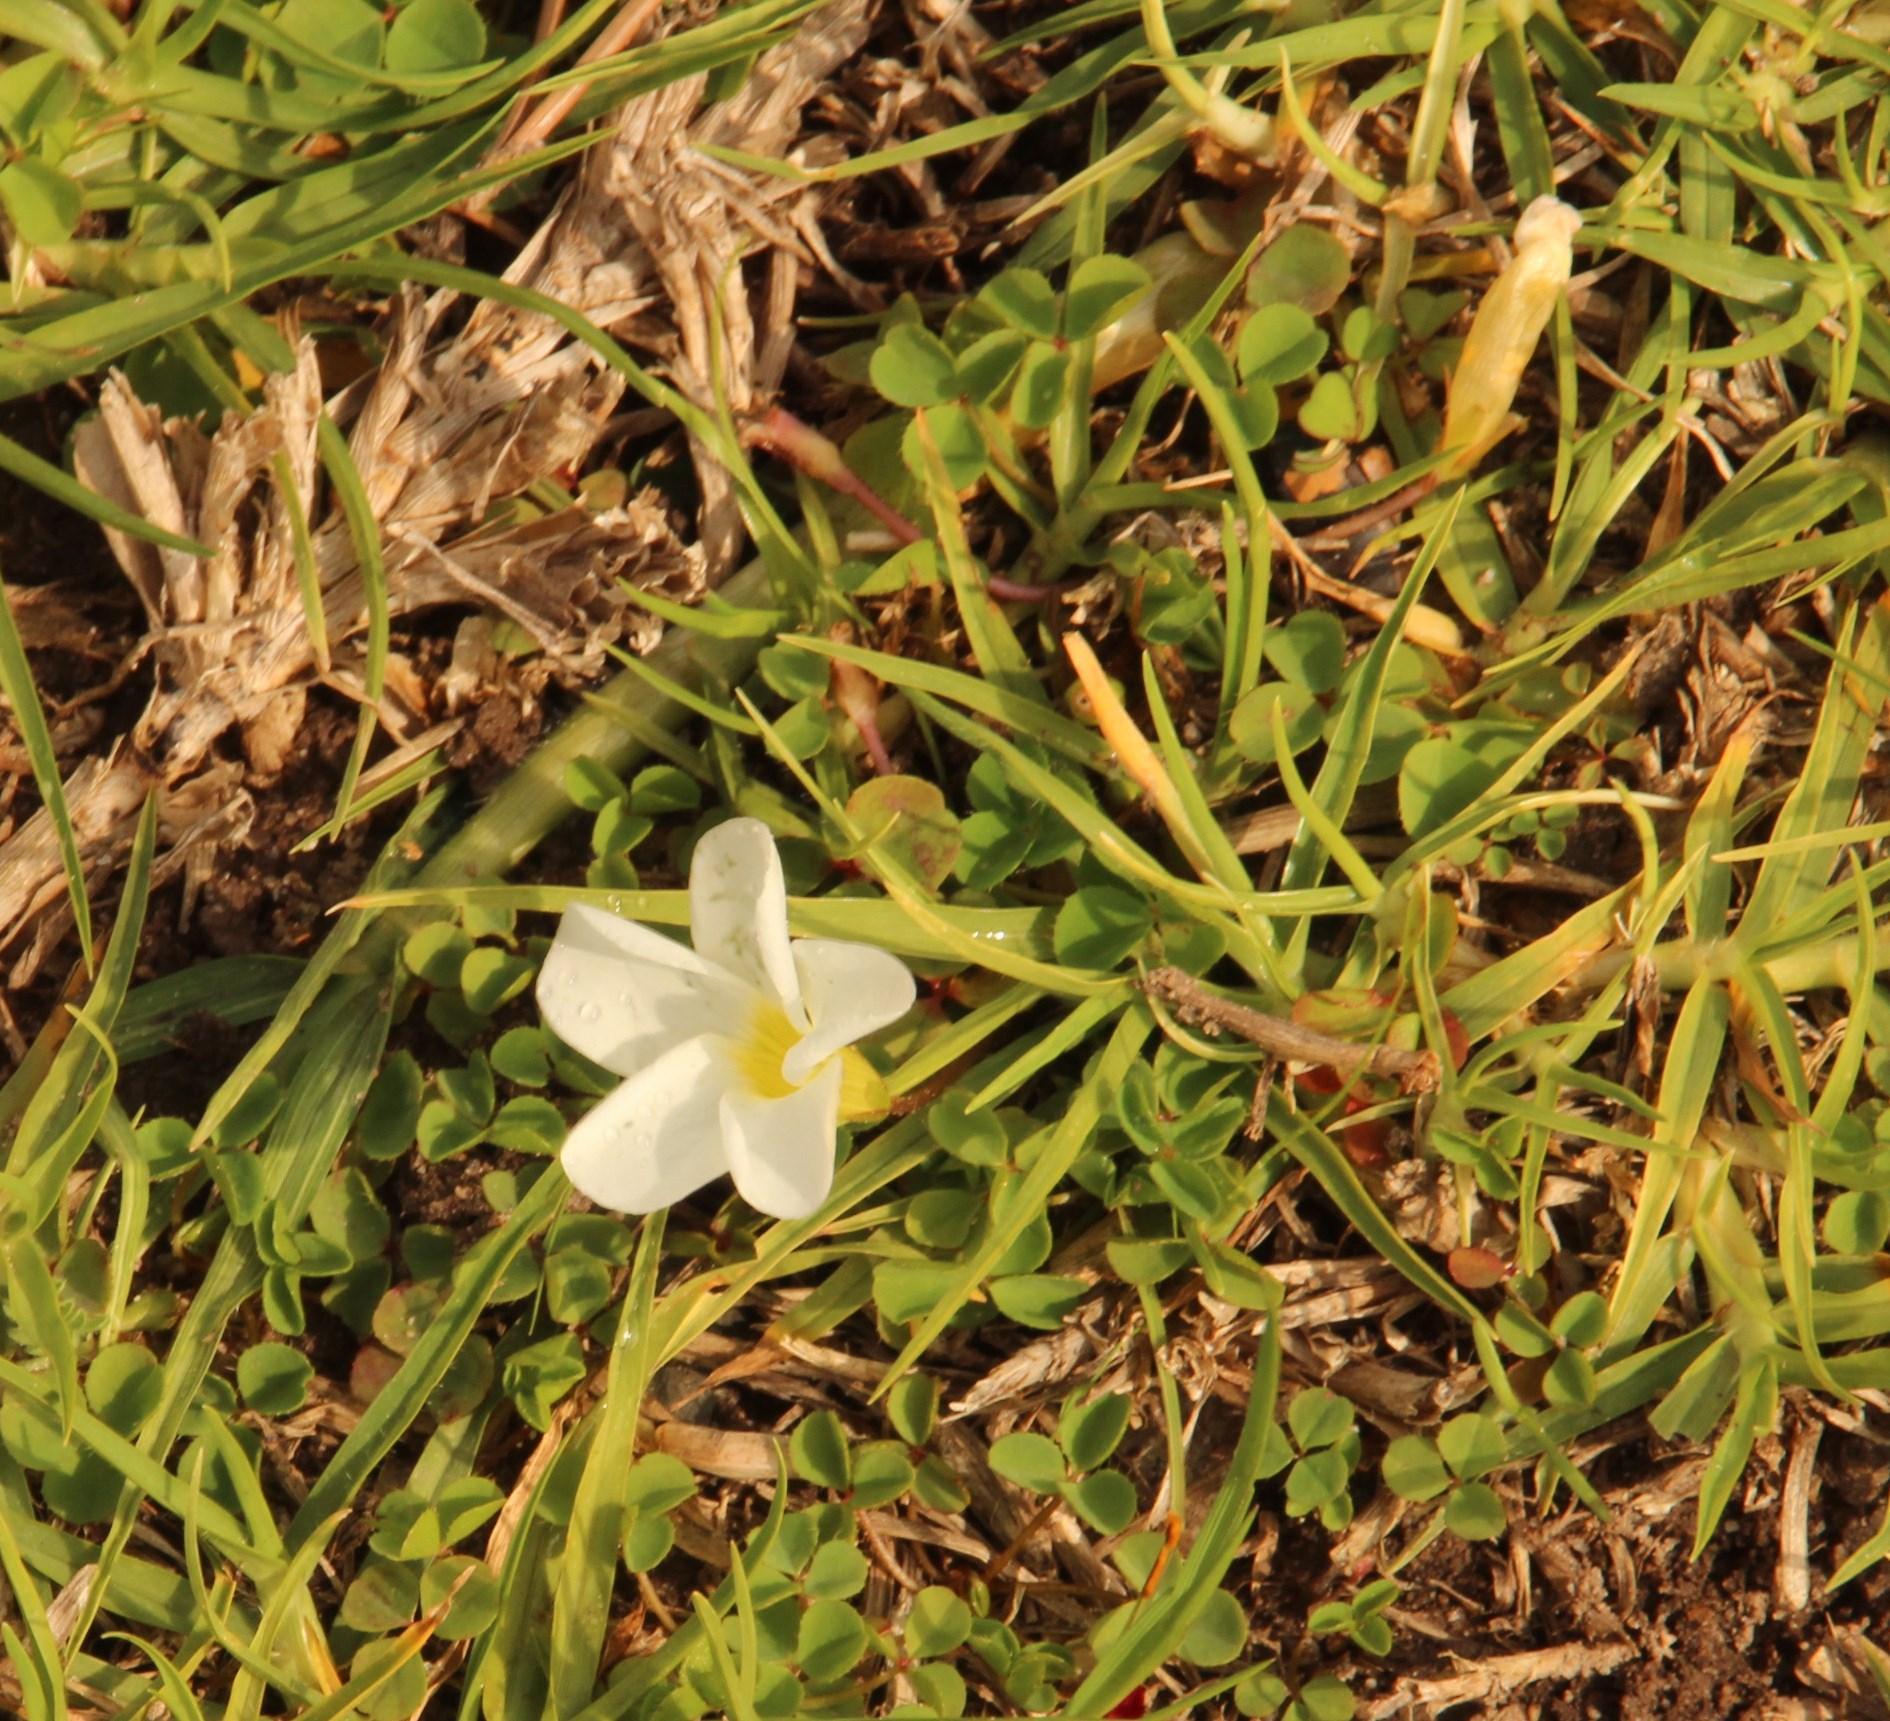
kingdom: Plantae
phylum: Tracheophyta
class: Magnoliopsida
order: Oxalidales
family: Oxalidaceae
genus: Oxalis
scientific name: Oxalis minuta
